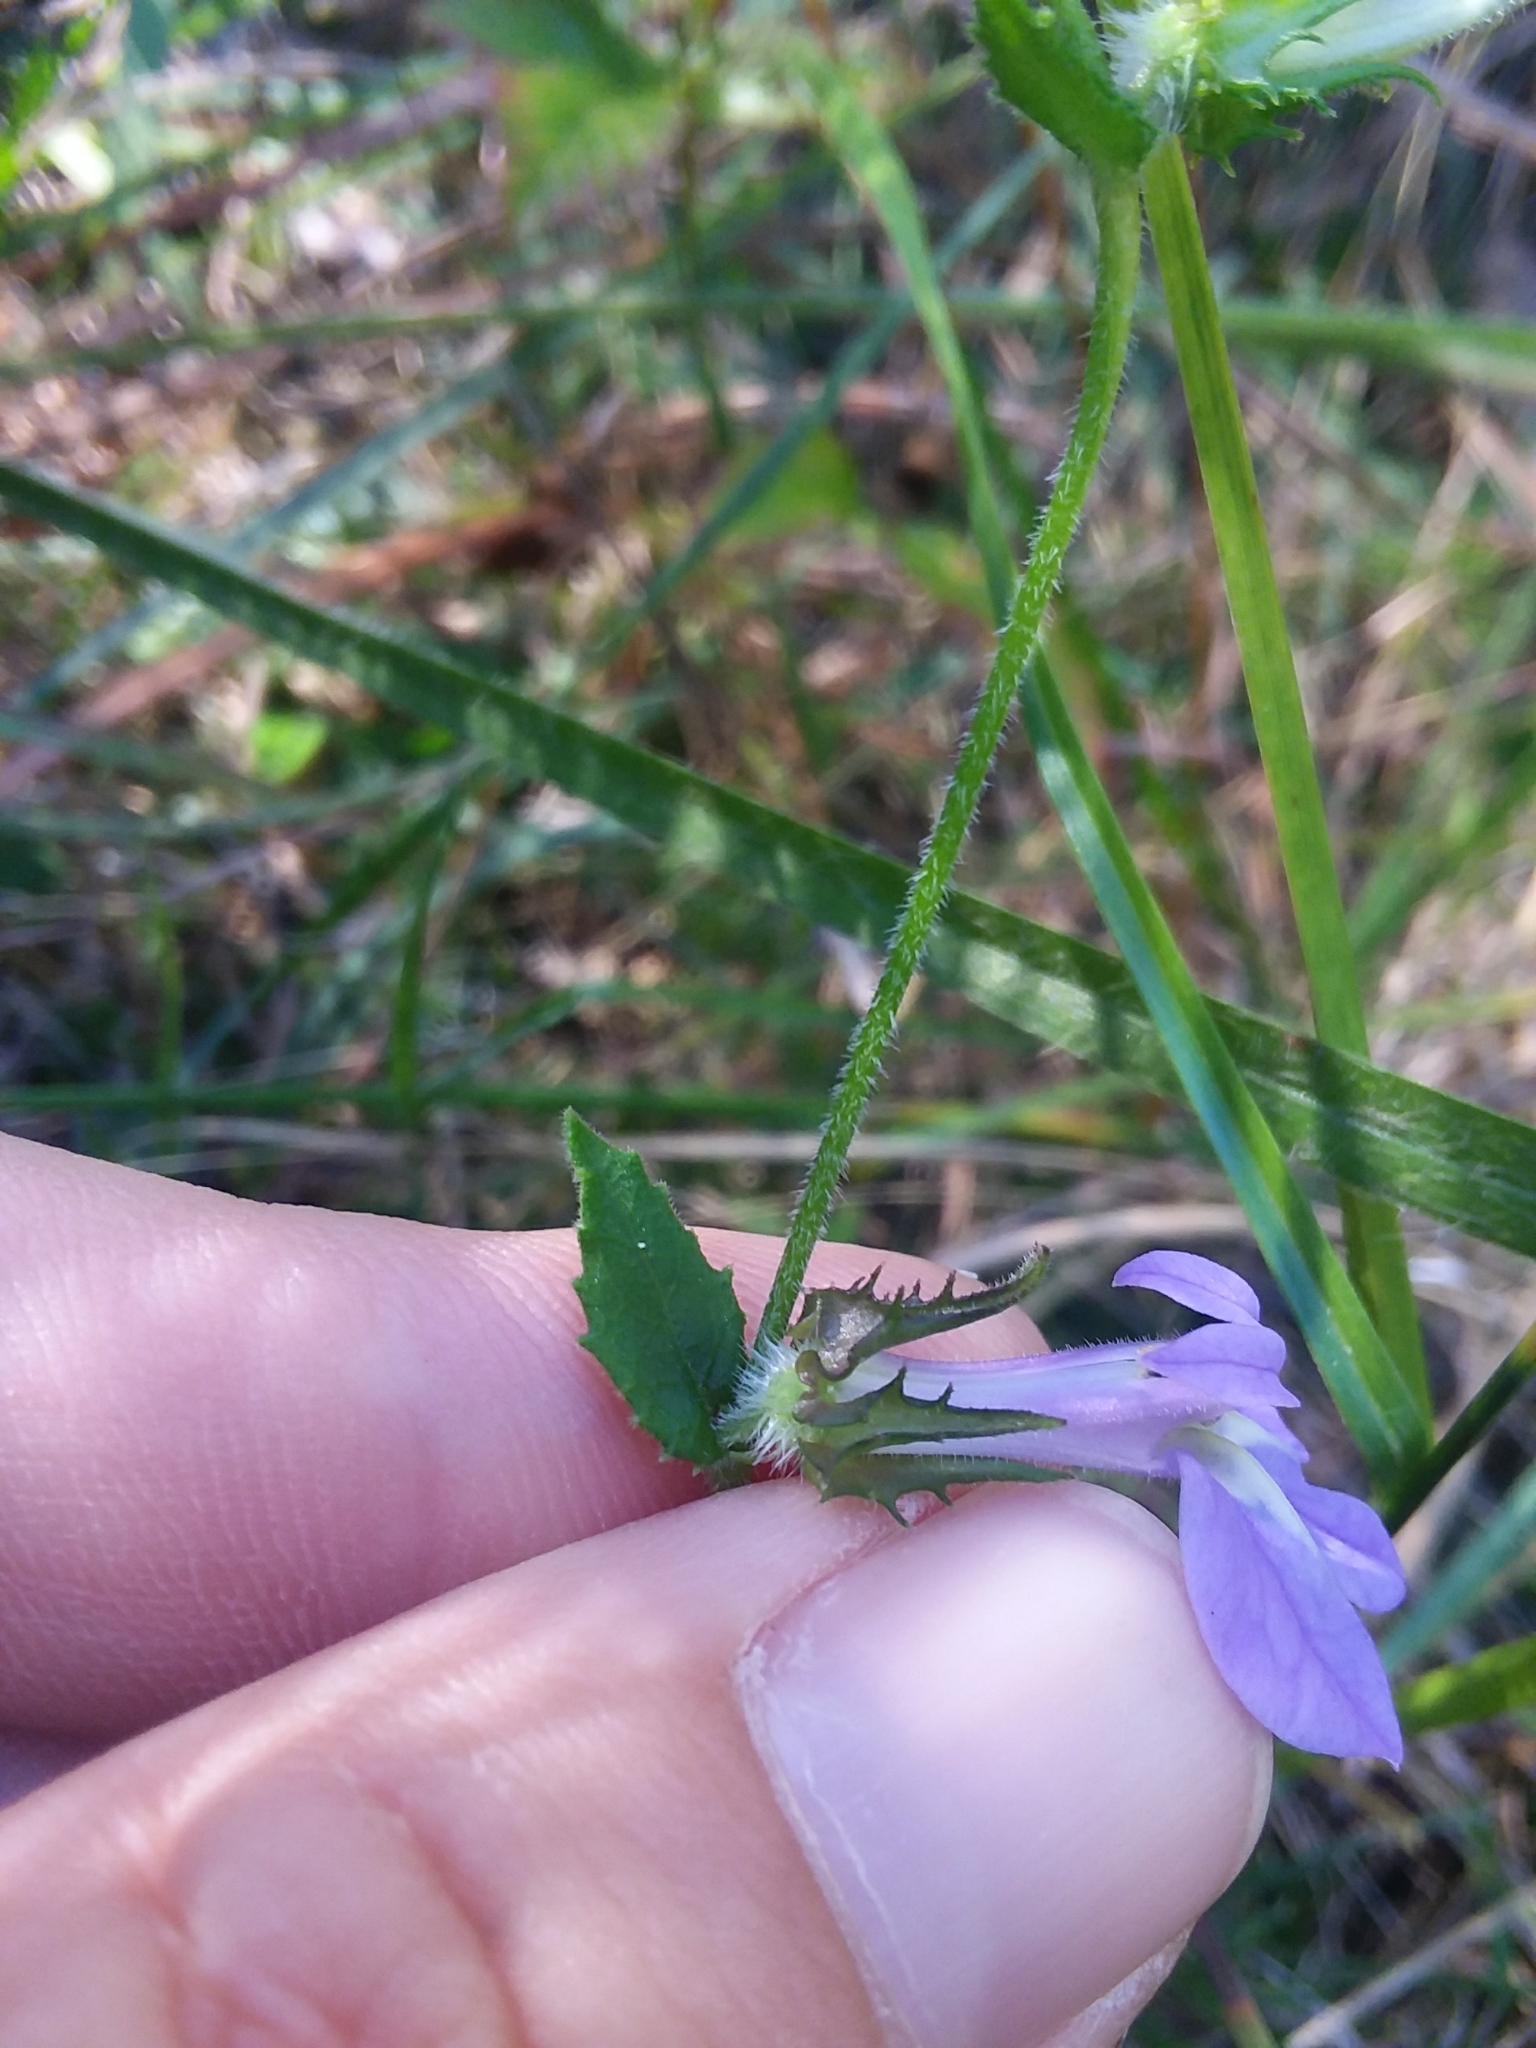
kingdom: Plantae
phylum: Tracheophyta
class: Magnoliopsida
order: Asterales
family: Campanulaceae
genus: Lobelia
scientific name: Lobelia rogersii
